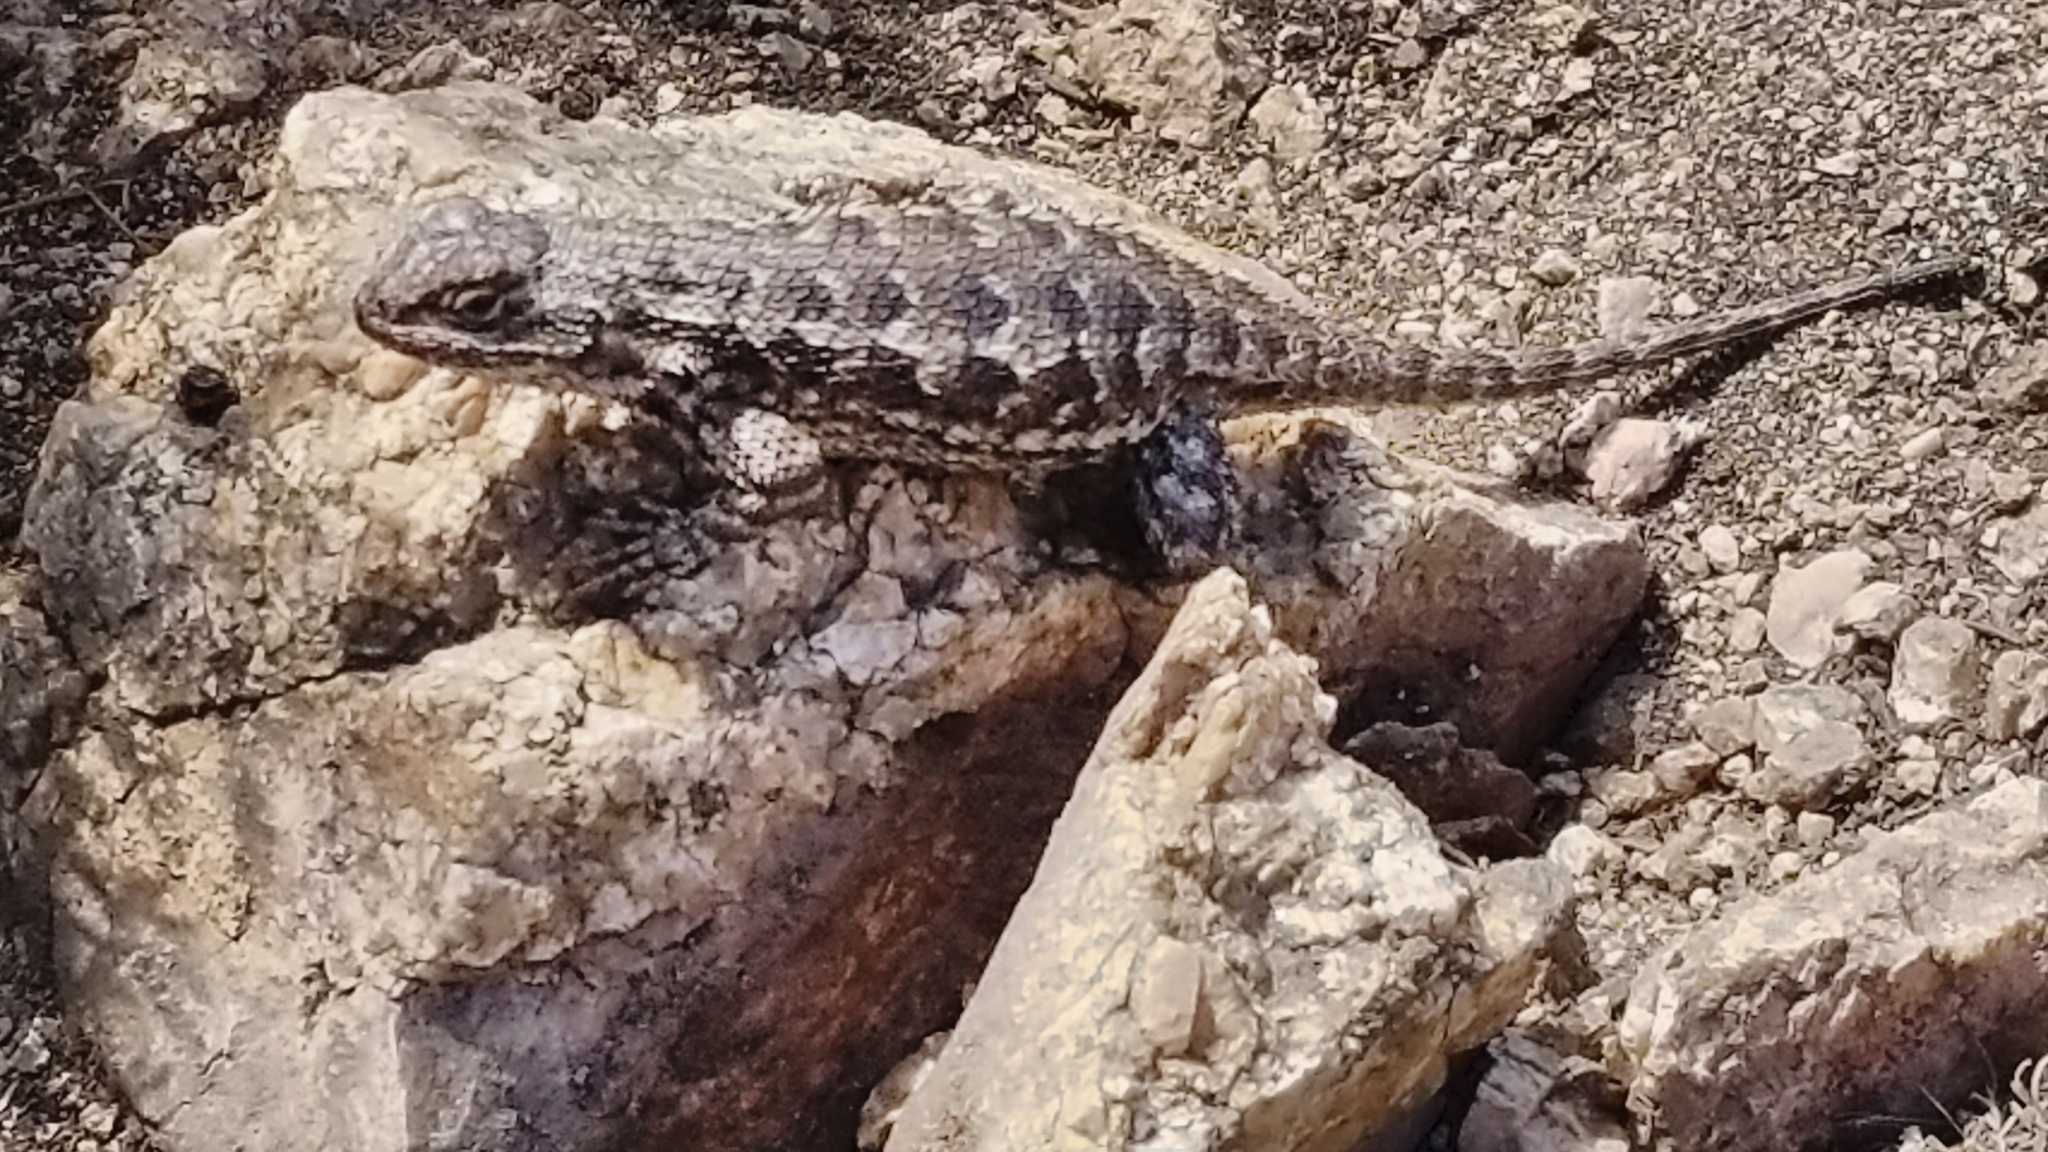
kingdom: Animalia
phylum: Chordata
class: Squamata
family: Phrynosomatidae
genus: Sceloporus
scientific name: Sceloporus occidentalis
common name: Western fence lizard
